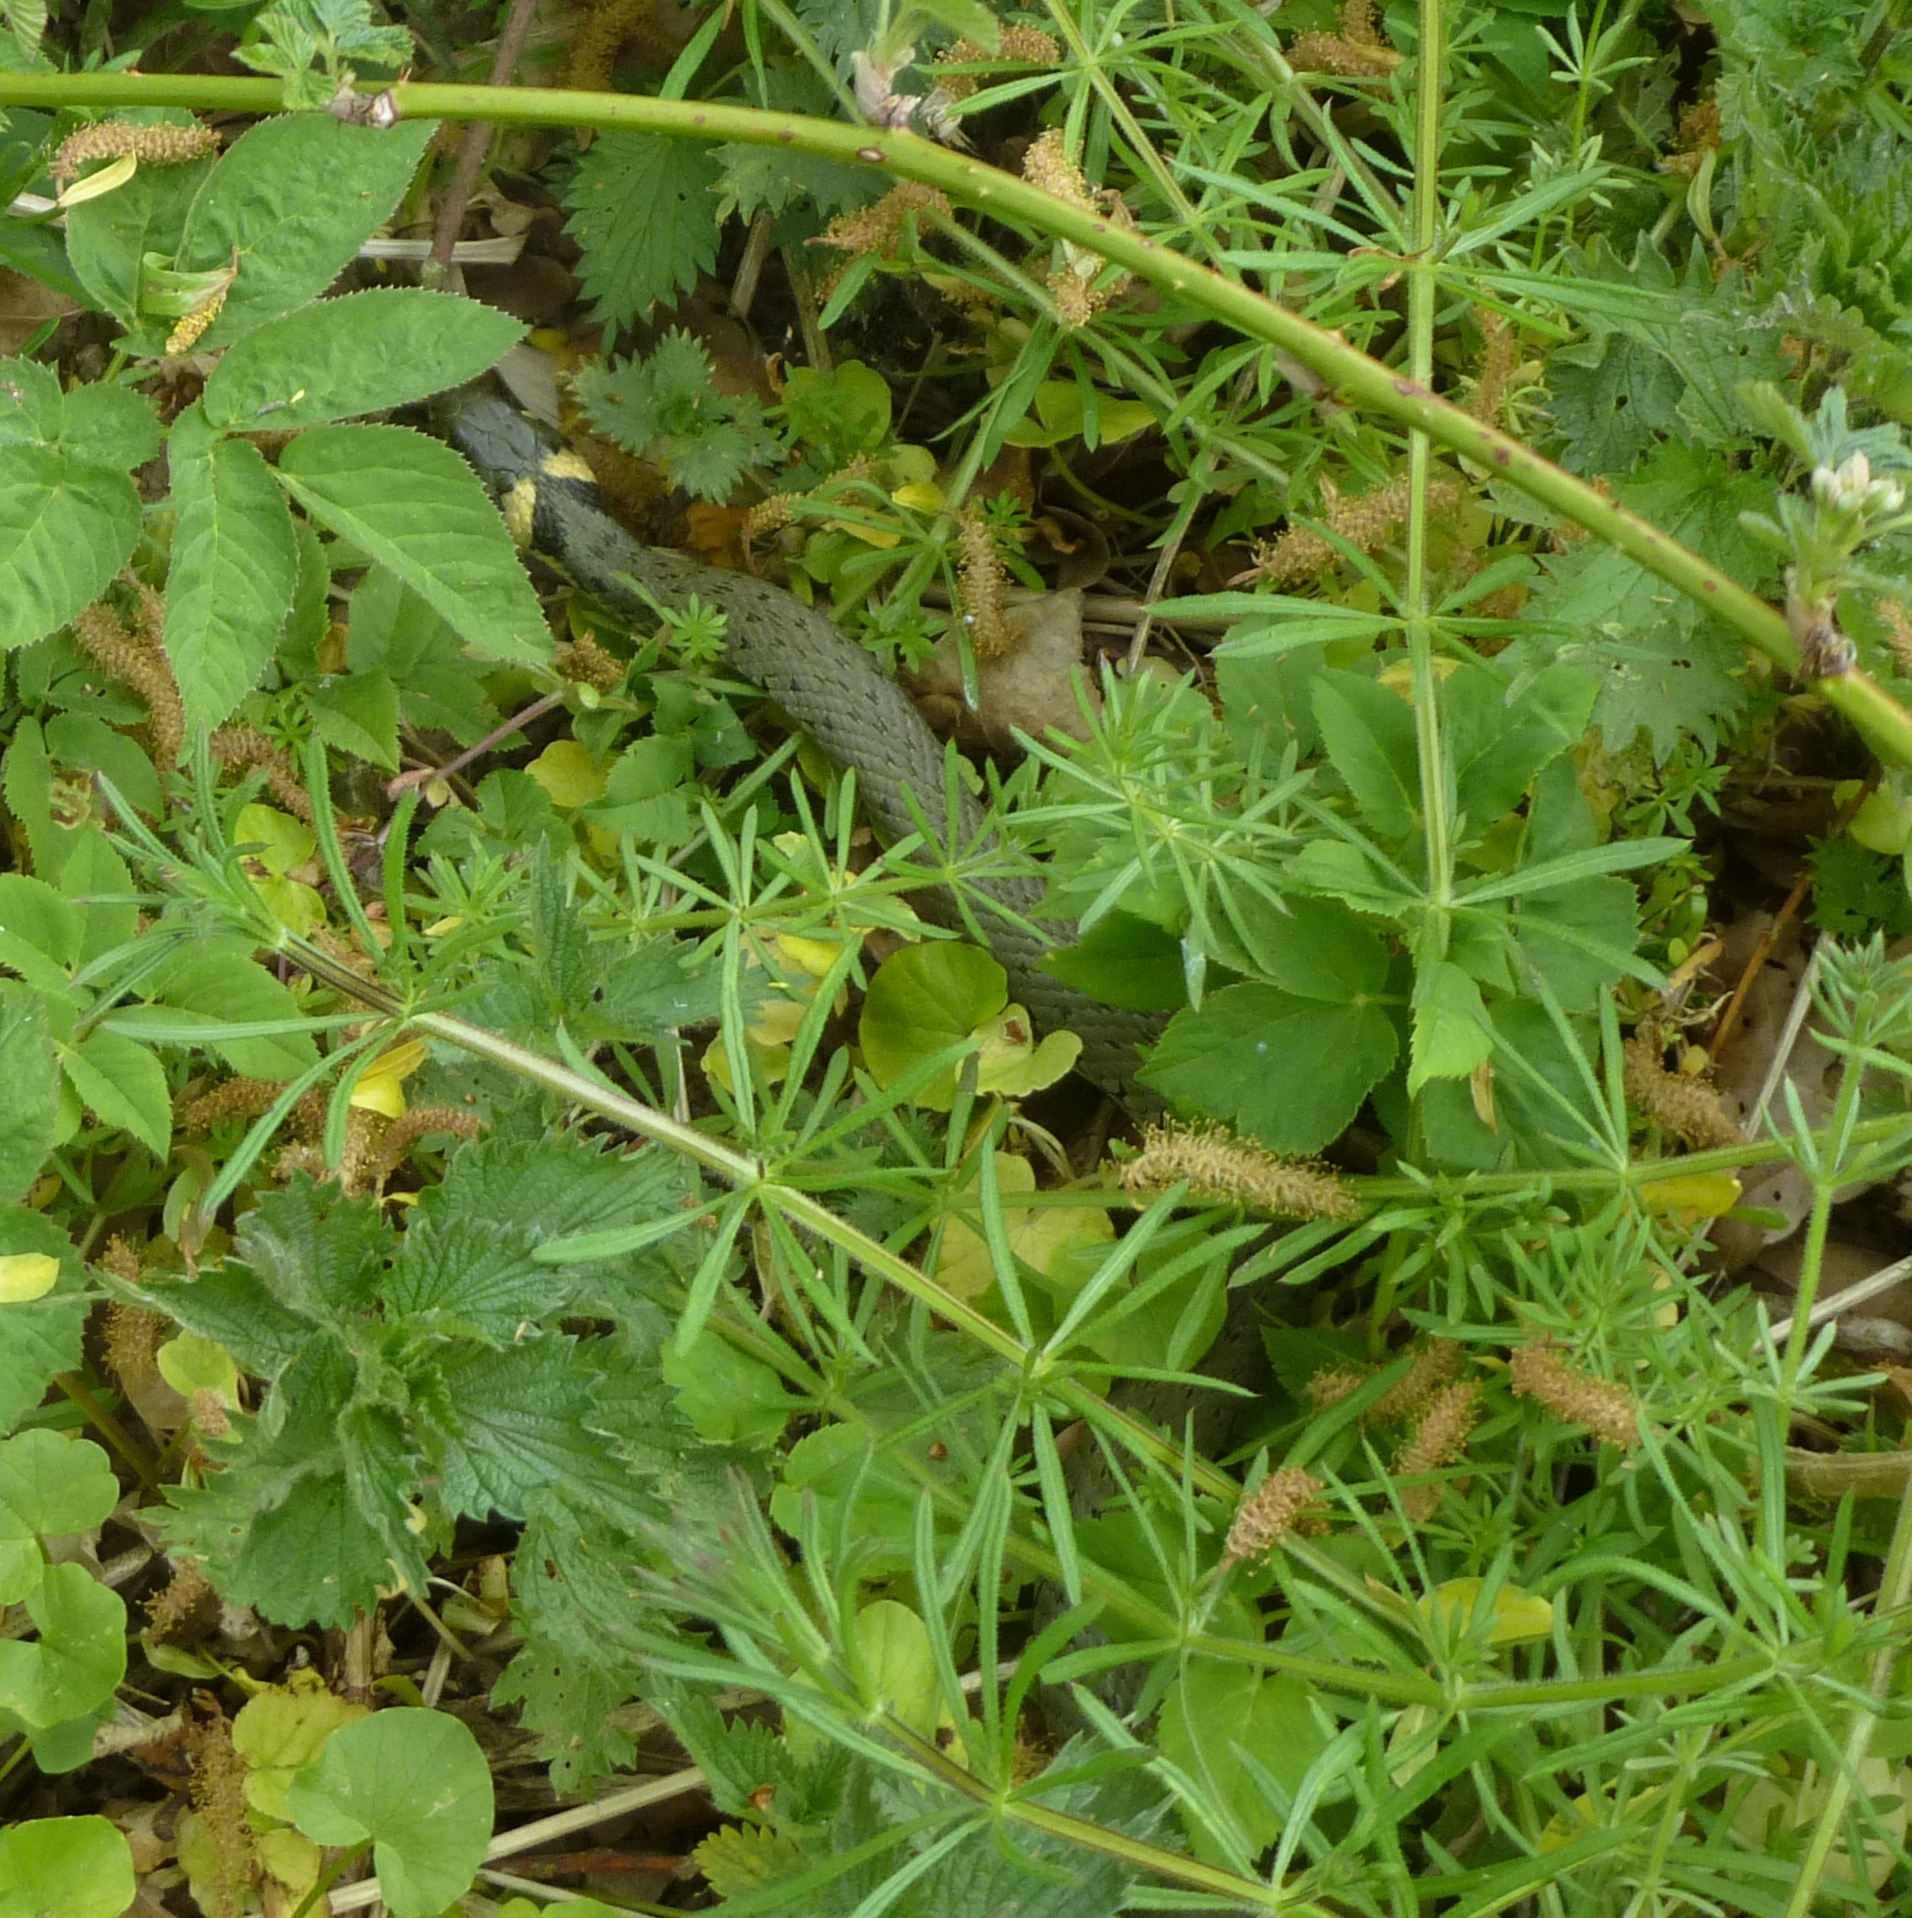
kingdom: Animalia
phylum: Chordata
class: Squamata
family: Colubridae
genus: Natrix
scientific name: Natrix natrix
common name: Grass snake
